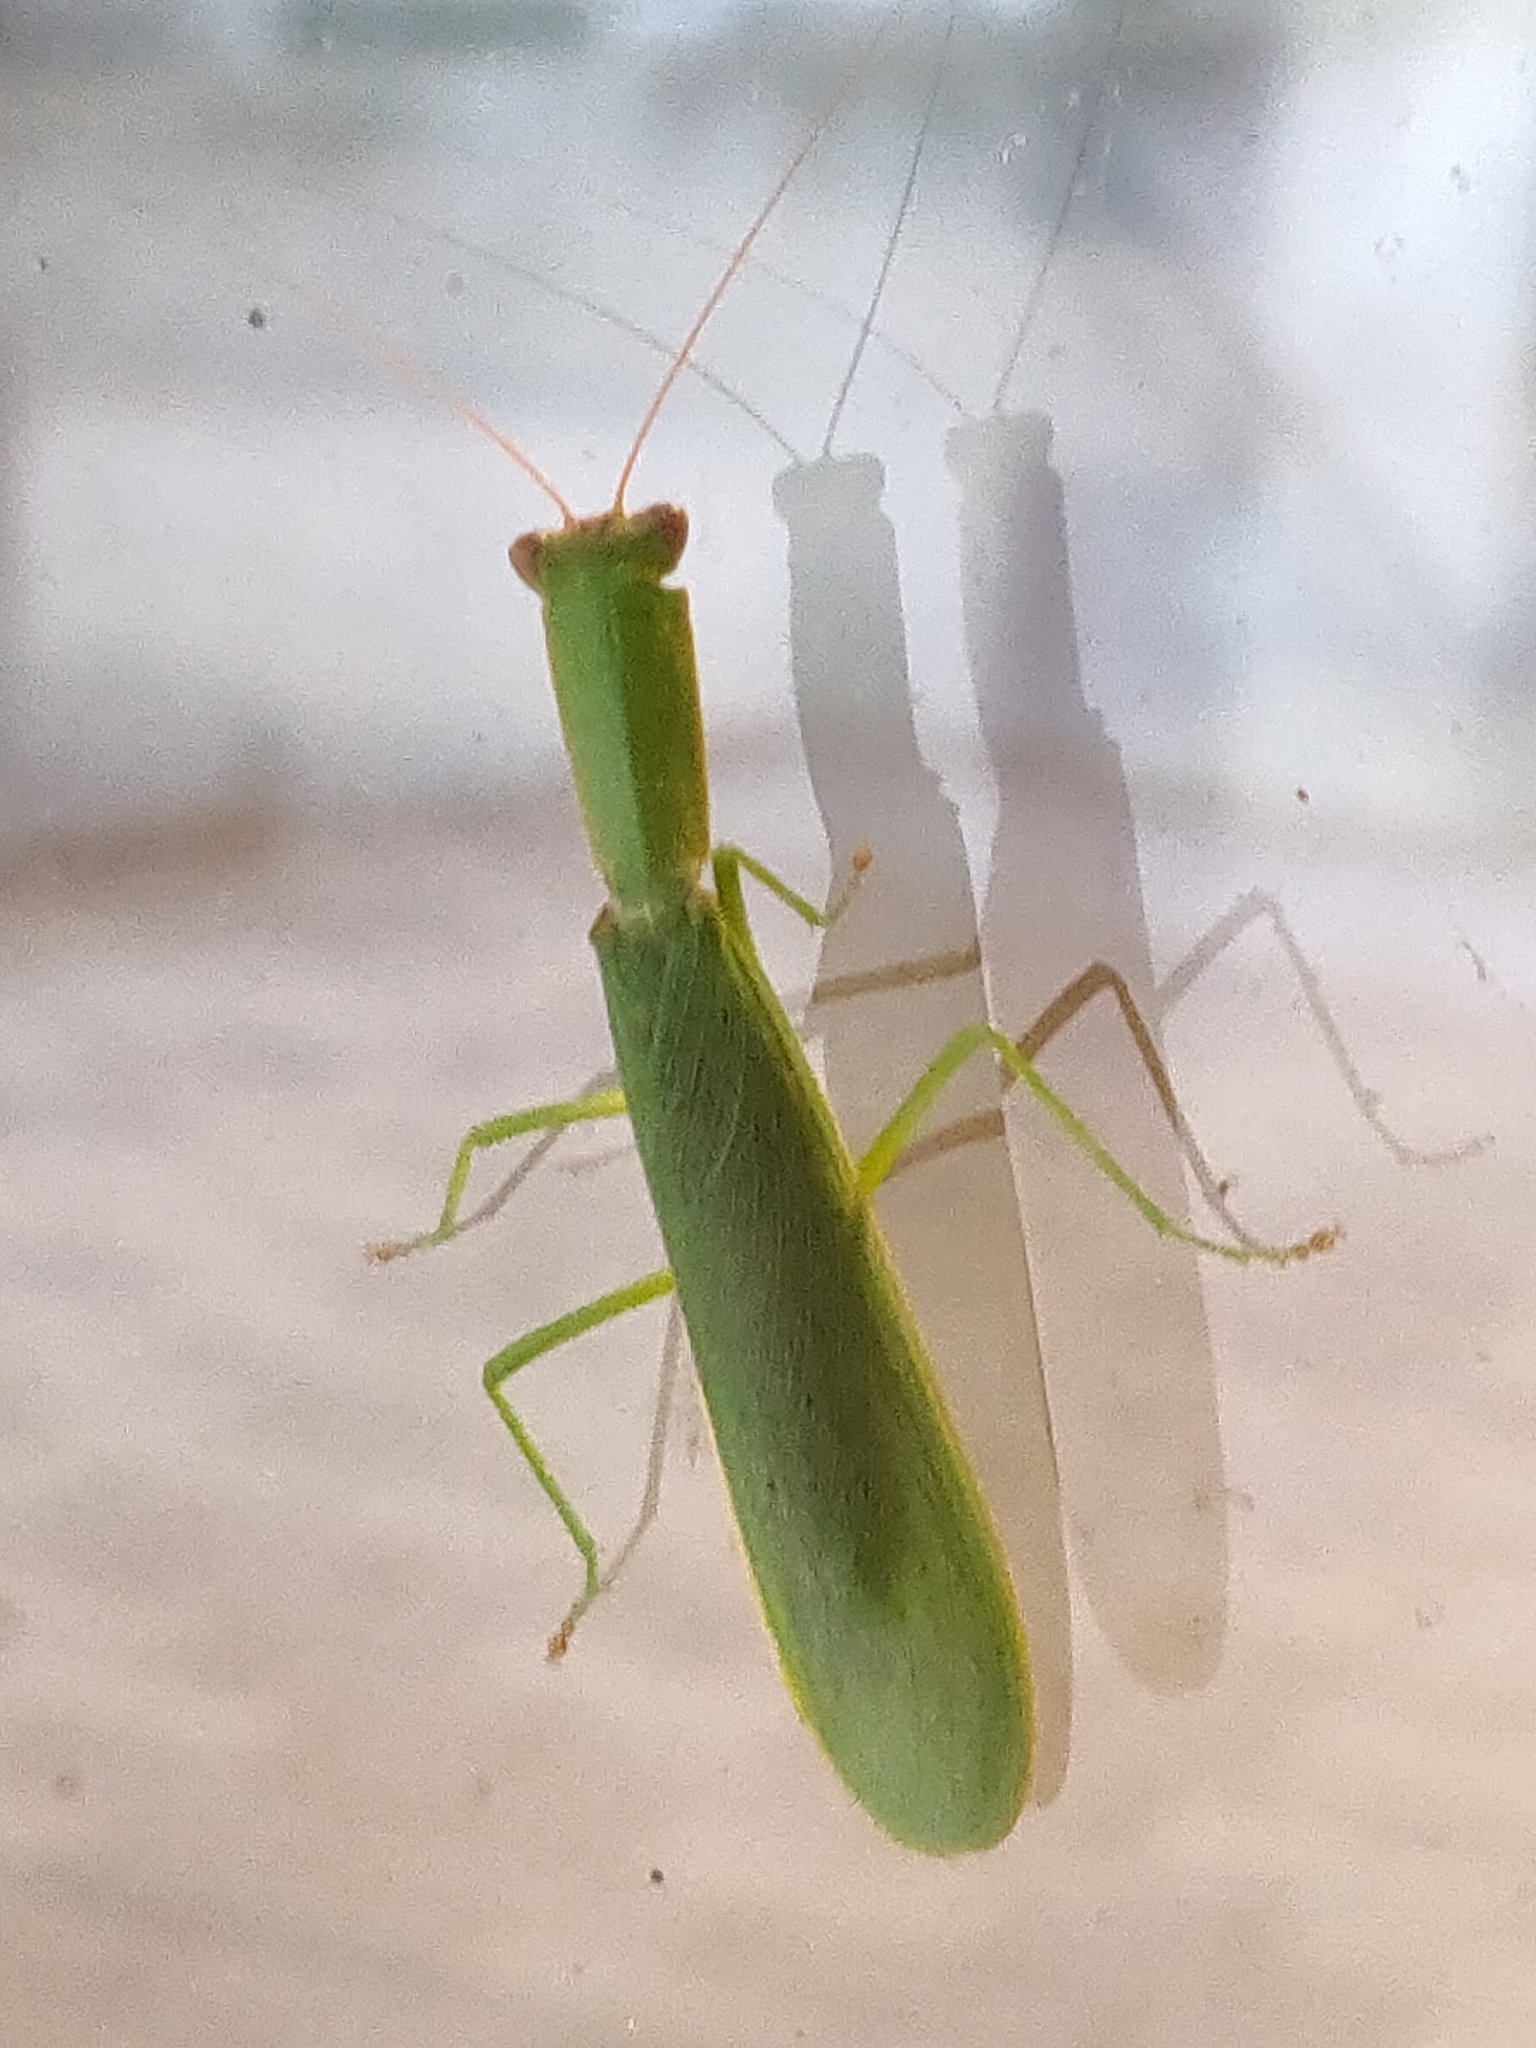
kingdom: Animalia
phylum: Arthropoda
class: Insecta
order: Mantodea
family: Mantidae
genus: Orthodera
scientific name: Orthodera ministralis
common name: Mantis
